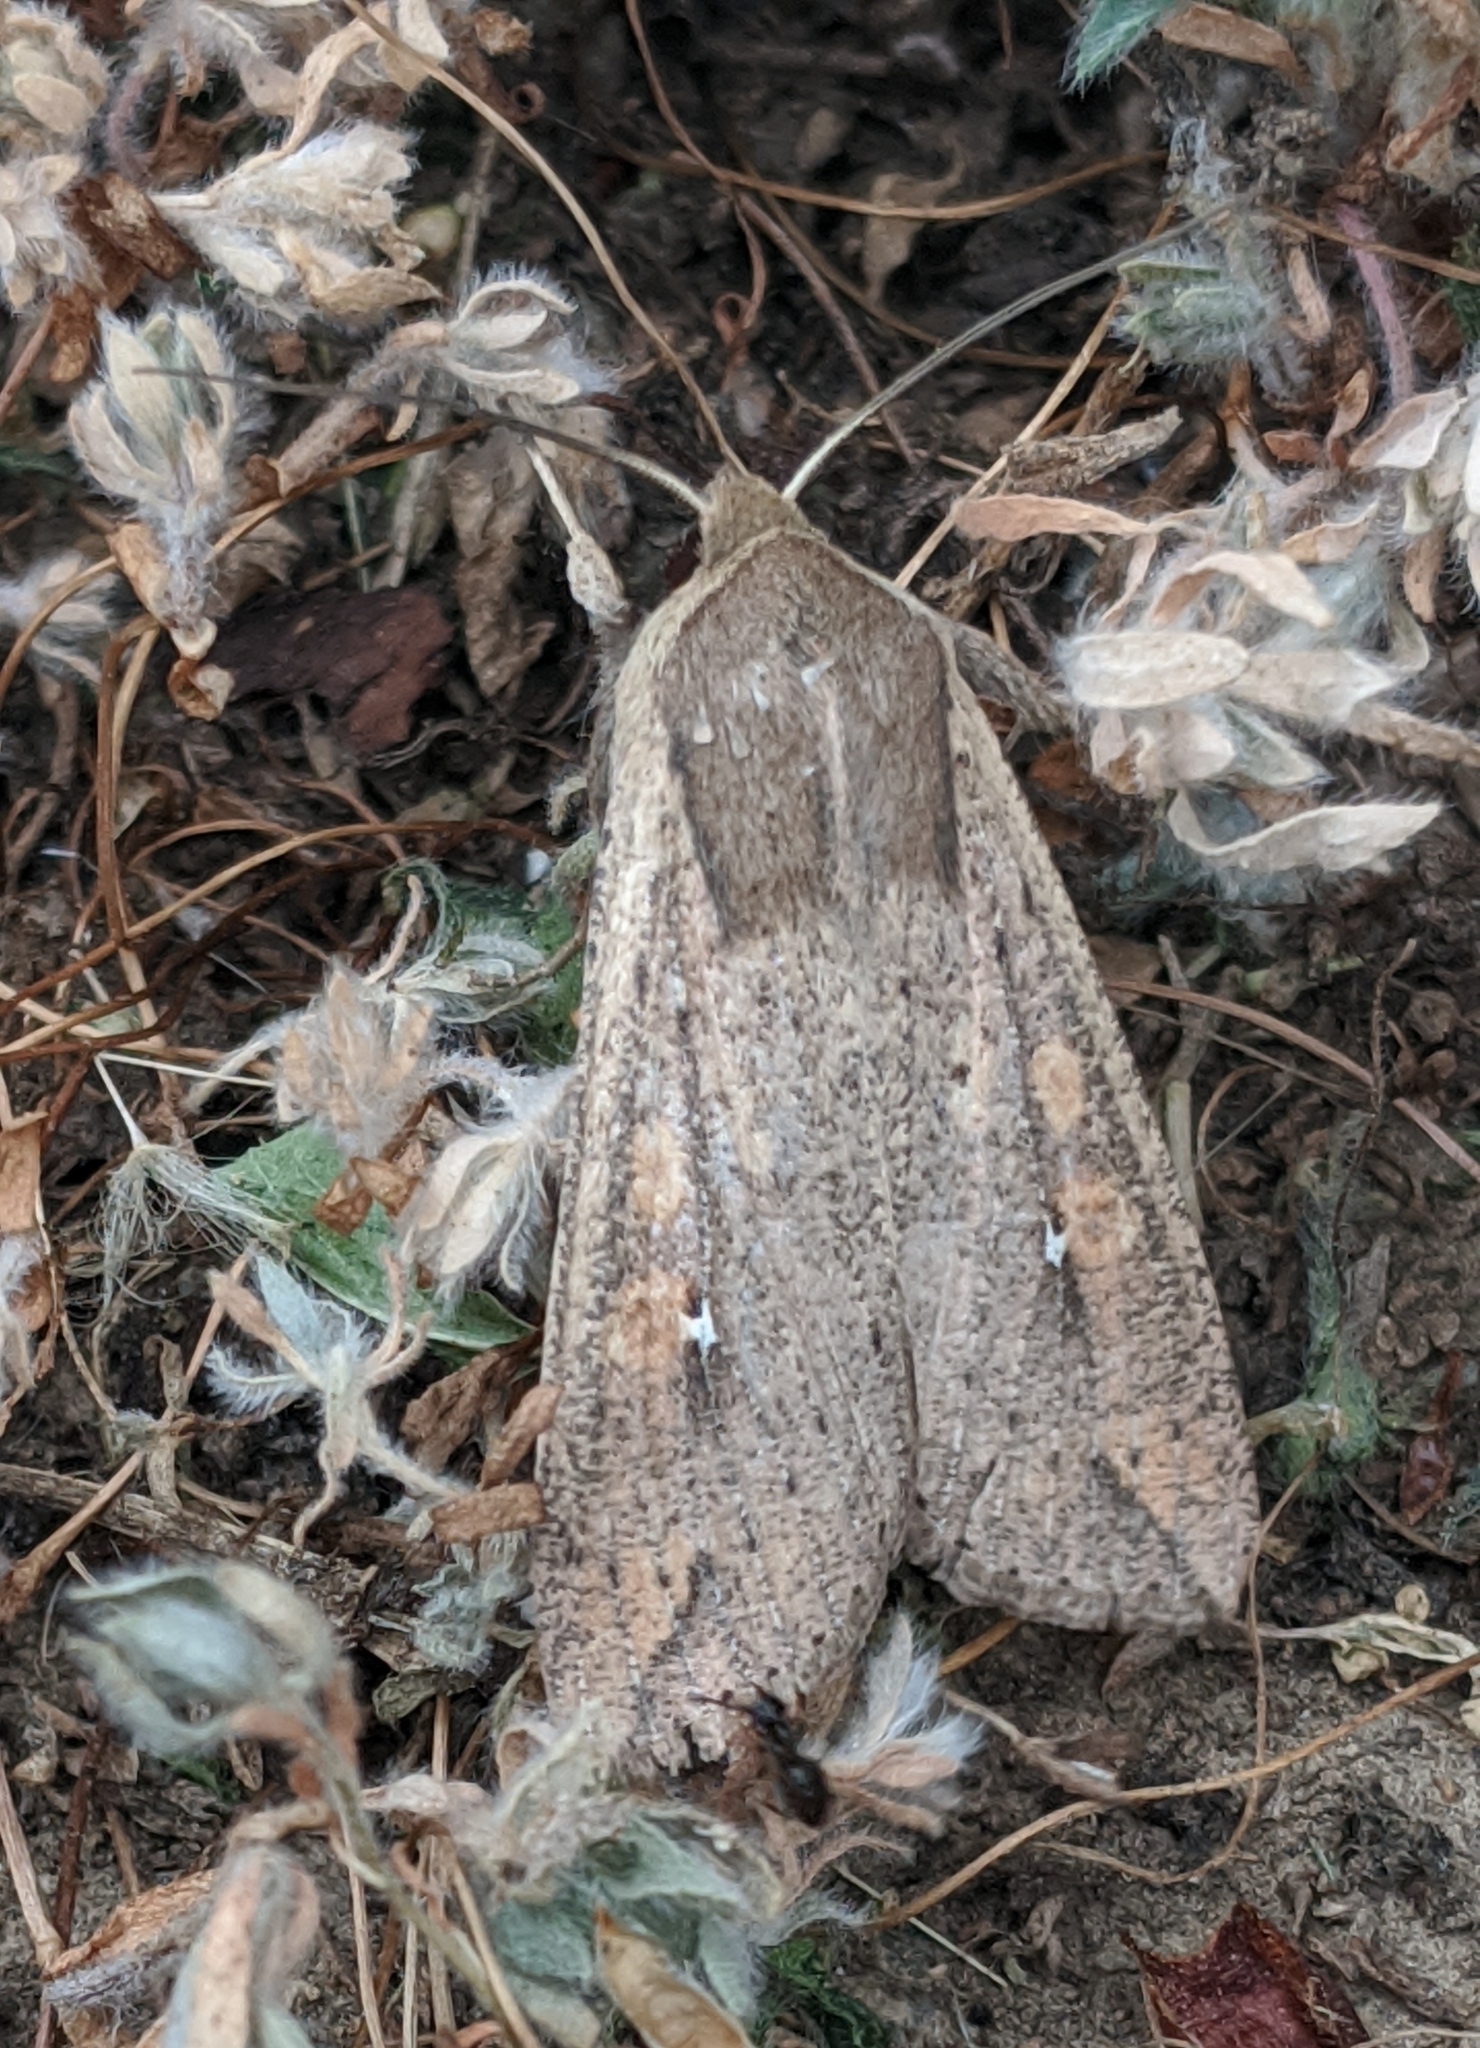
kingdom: Animalia
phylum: Arthropoda
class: Insecta
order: Lepidoptera
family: Noctuidae
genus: Mythimna
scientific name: Mythimna unipuncta
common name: White-speck
